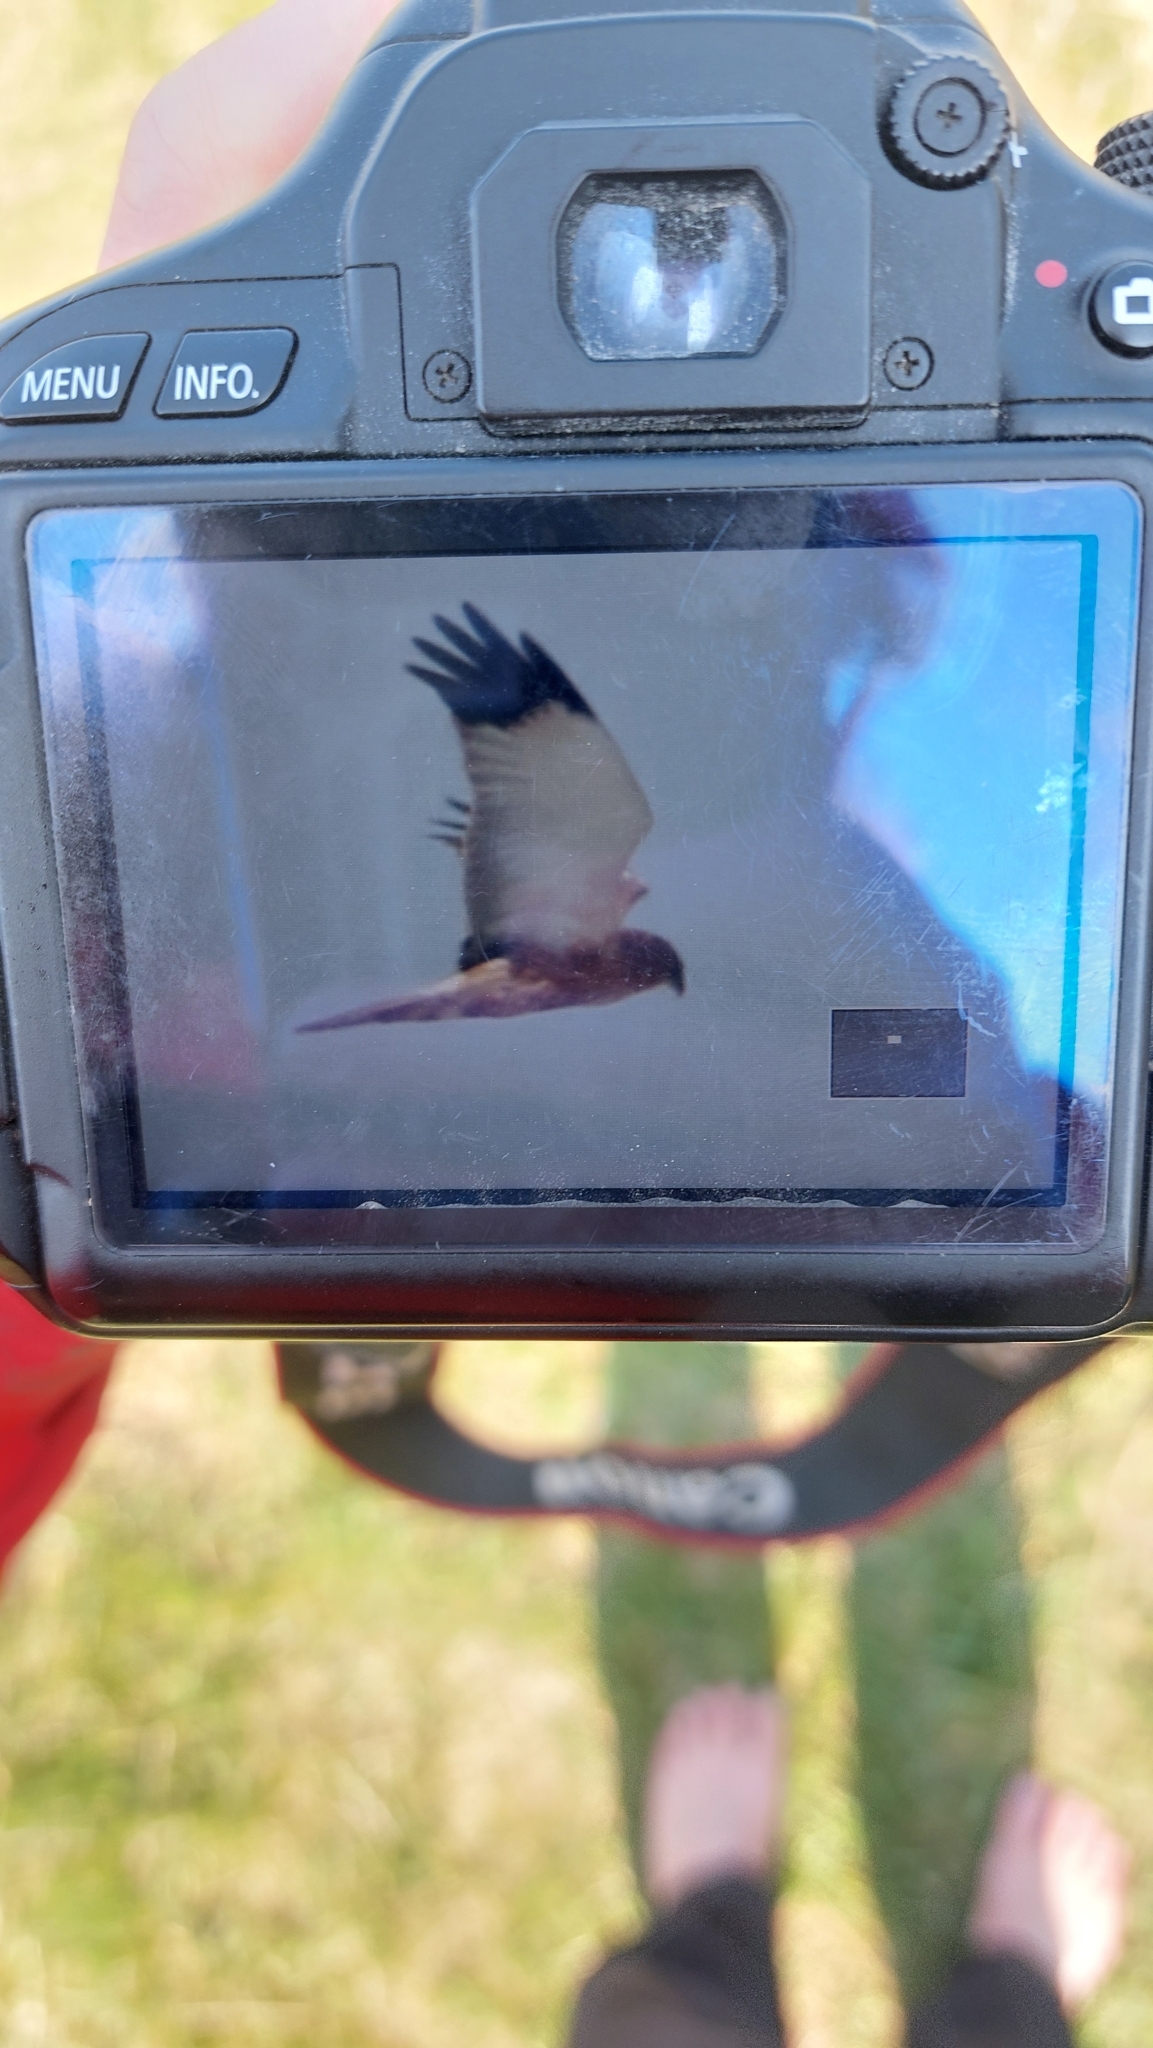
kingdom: Animalia
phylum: Chordata
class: Aves
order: Accipitriformes
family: Accipitridae
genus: Circus
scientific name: Circus aeruginosus
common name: Western marsh harrier
